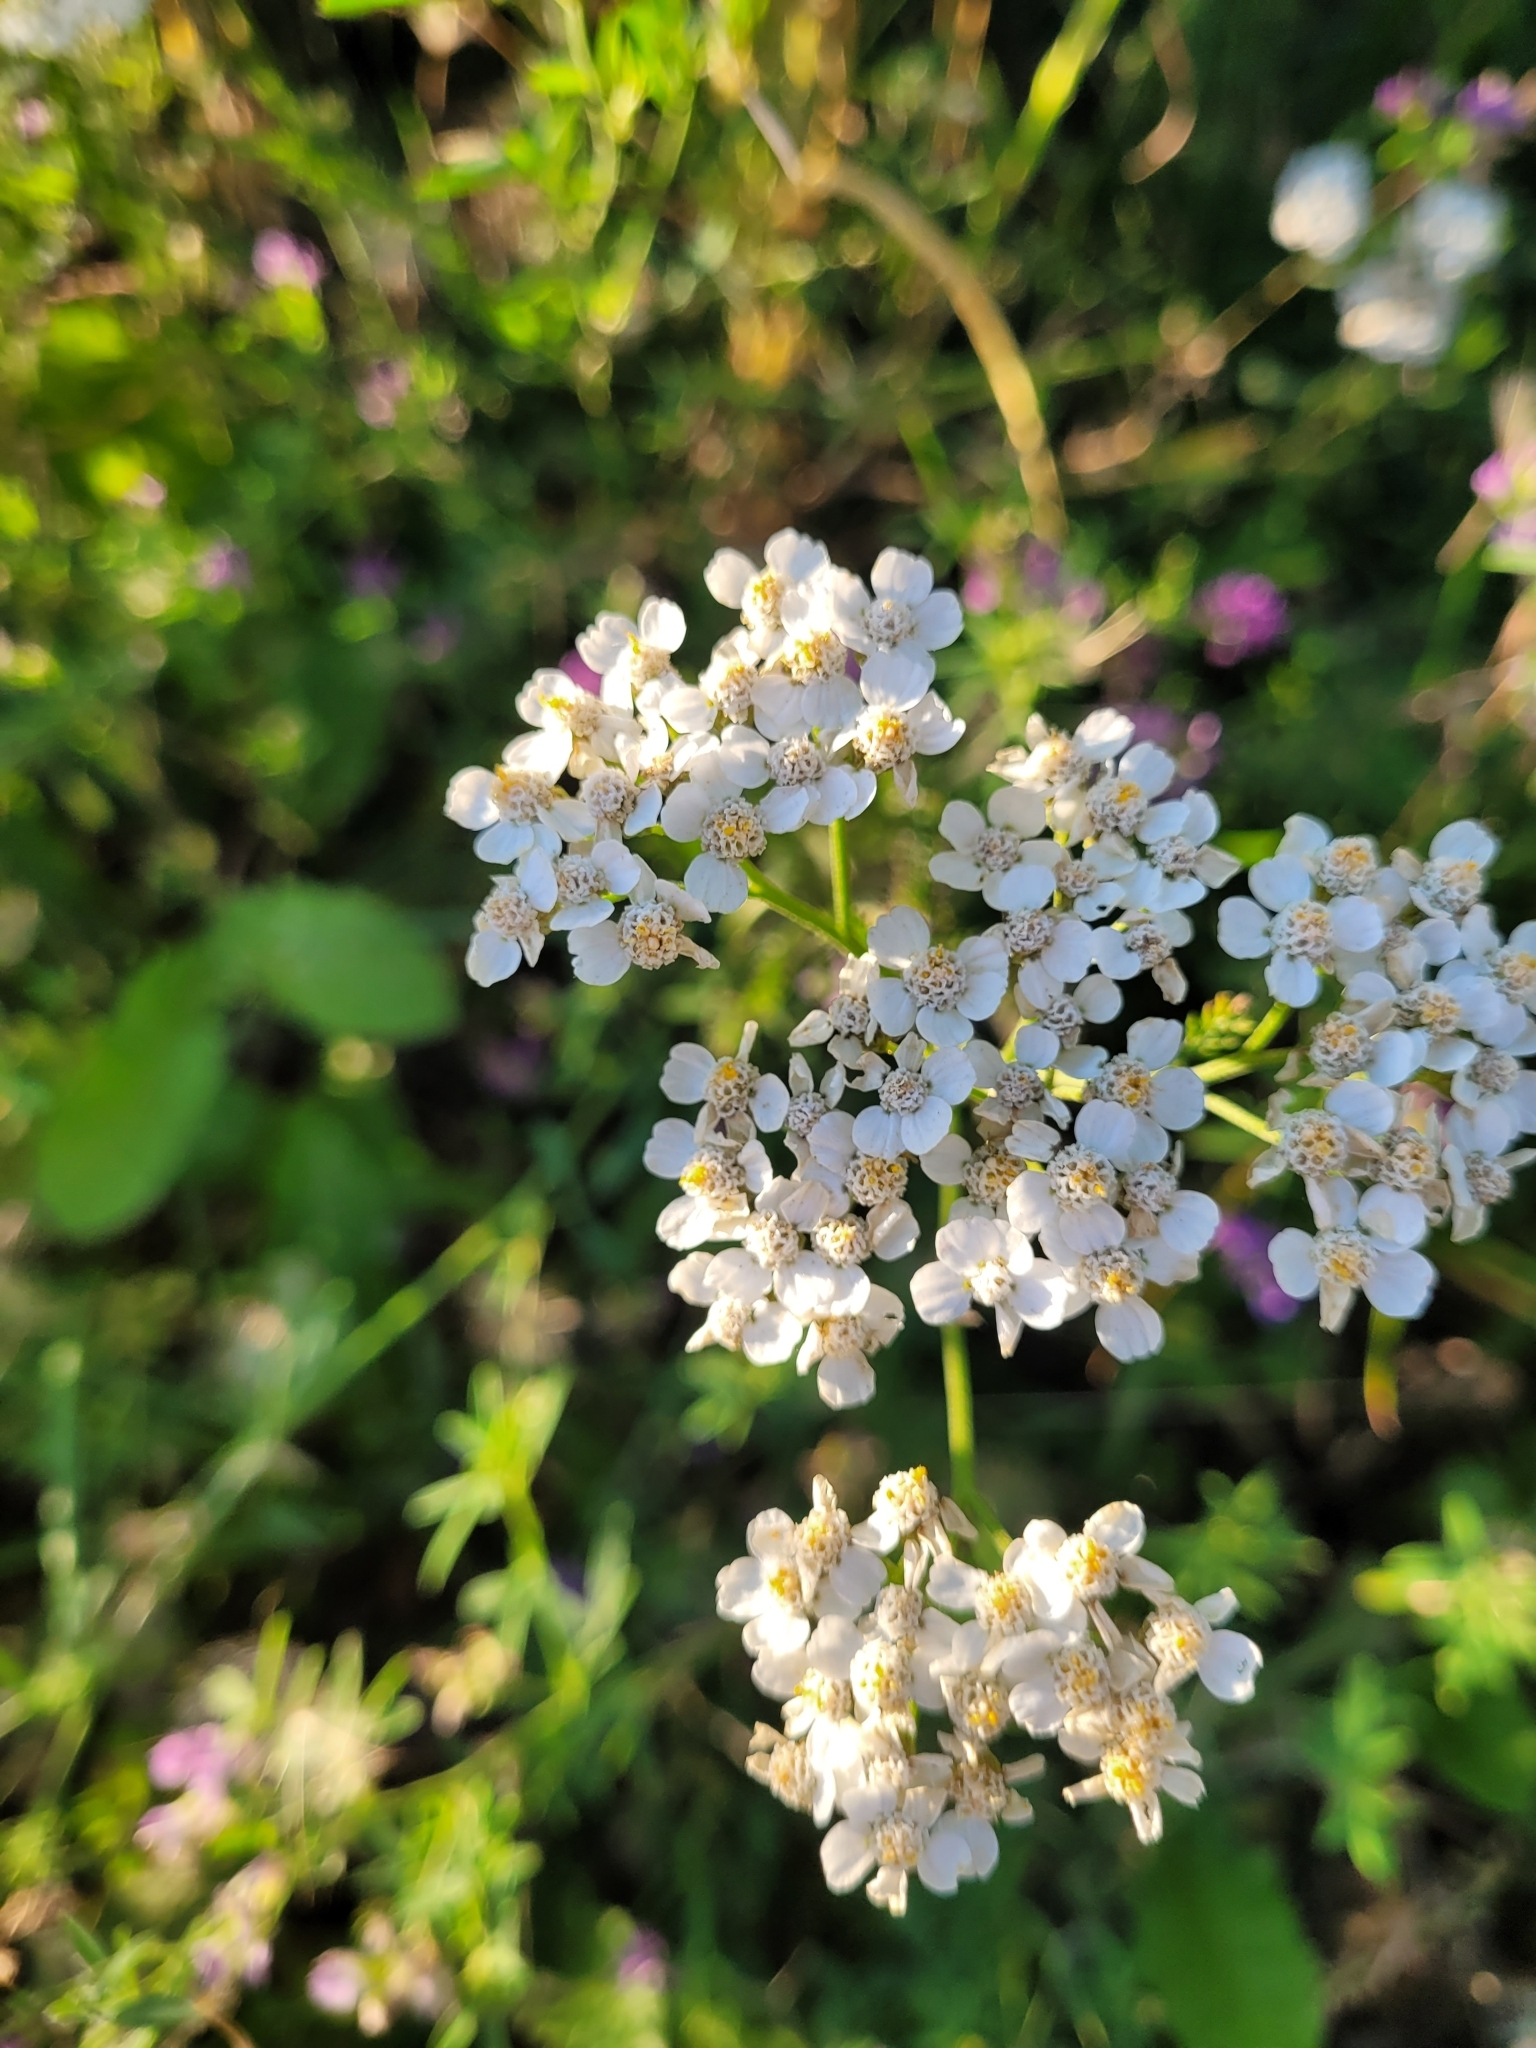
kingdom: Plantae
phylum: Tracheophyta
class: Magnoliopsida
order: Asterales
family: Asteraceae
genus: Achillea
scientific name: Achillea millefolium
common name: Yarrow
